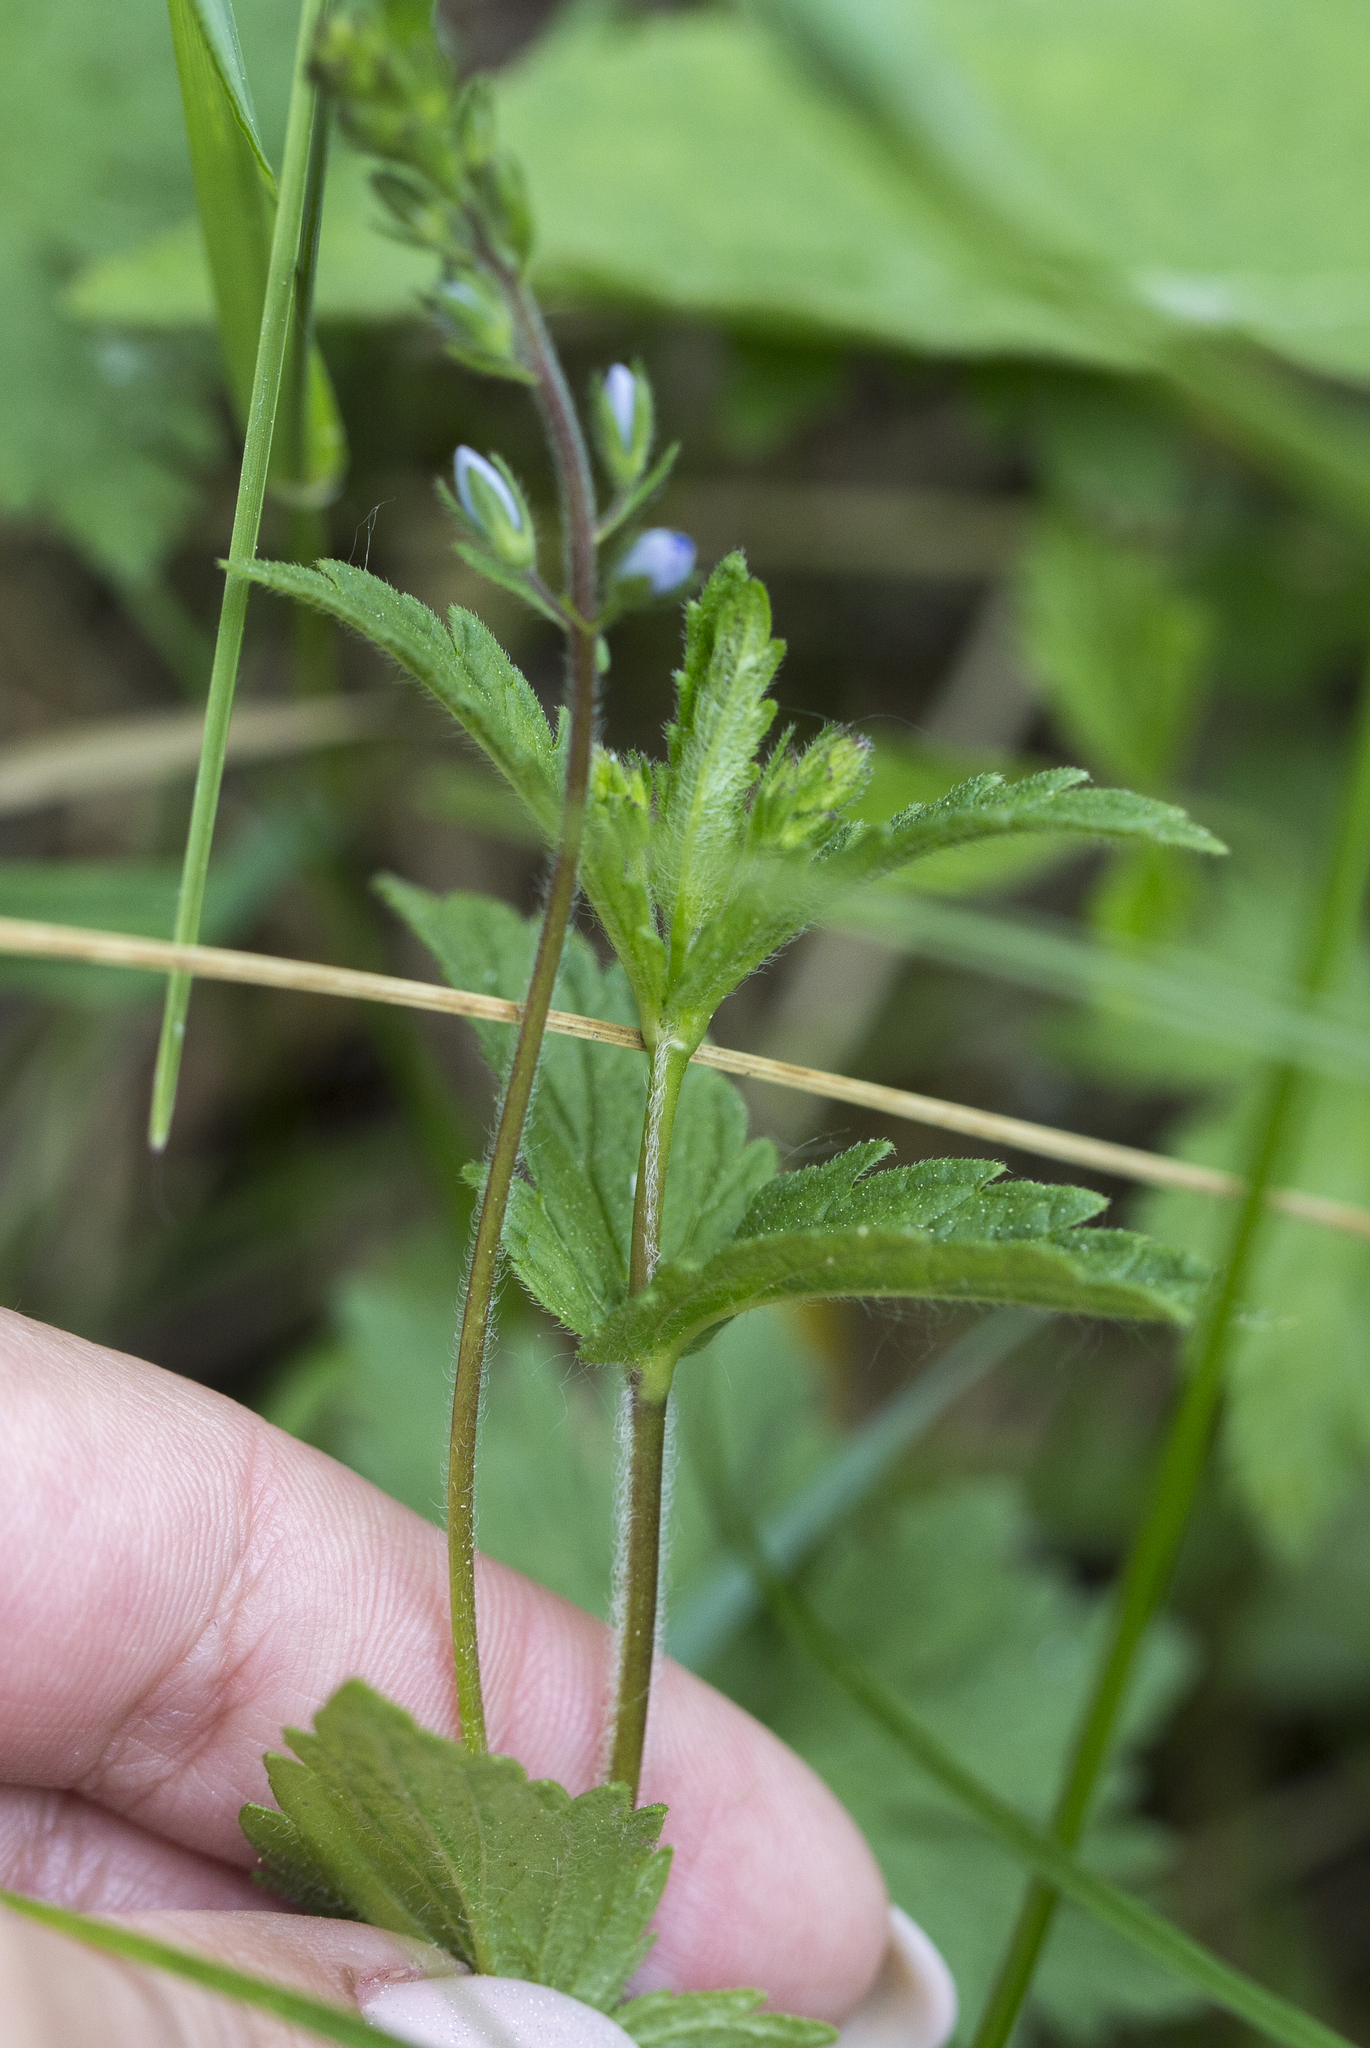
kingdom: Plantae
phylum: Tracheophyta
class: Magnoliopsida
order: Lamiales
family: Plantaginaceae
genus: Veronica
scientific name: Veronica chamaedrys
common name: Germander speedwell
